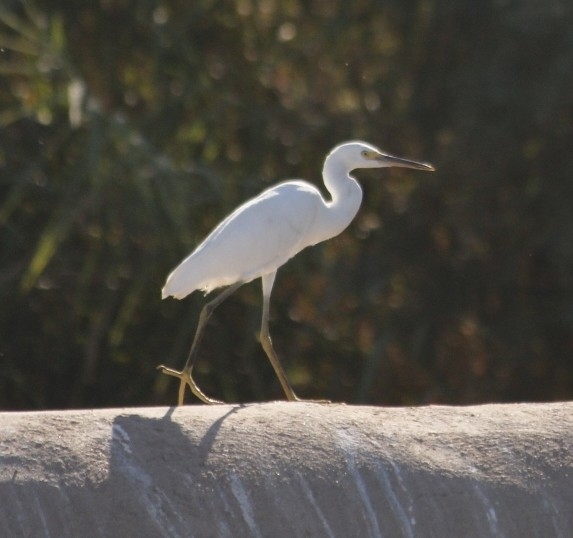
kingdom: Animalia
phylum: Chordata
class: Aves
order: Pelecaniformes
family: Ardeidae
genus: Egretta
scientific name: Egretta thula
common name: Snowy egret
